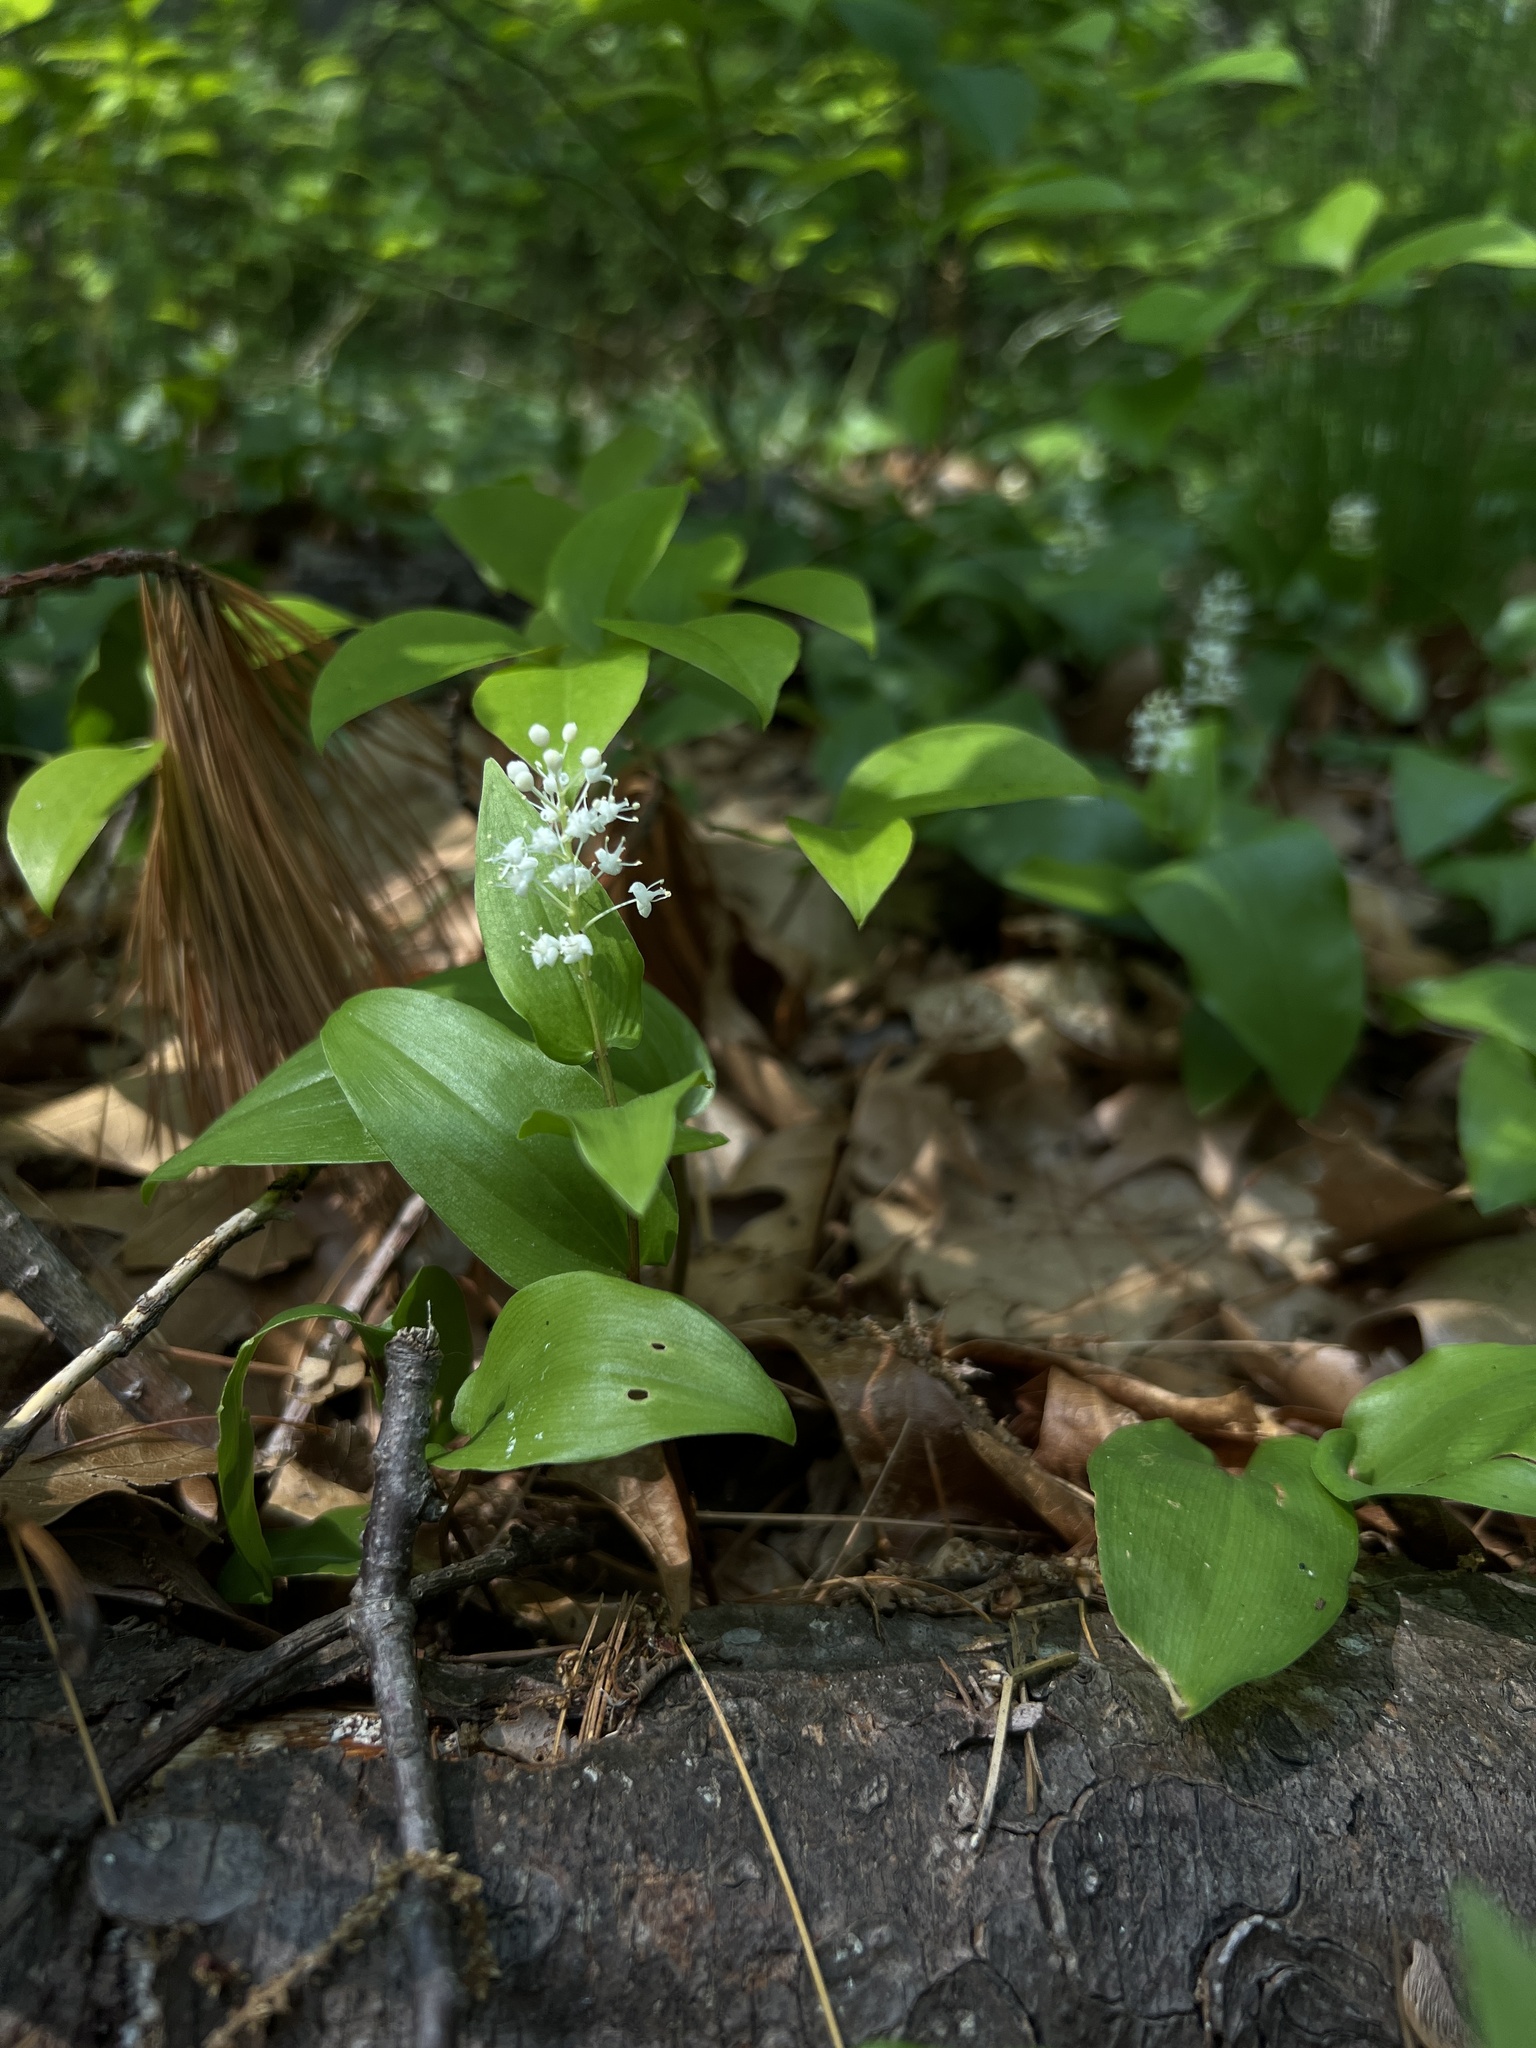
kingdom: Plantae
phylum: Tracheophyta
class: Liliopsida
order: Asparagales
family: Asparagaceae
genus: Maianthemum
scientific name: Maianthemum canadense
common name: False lily-of-the-valley
